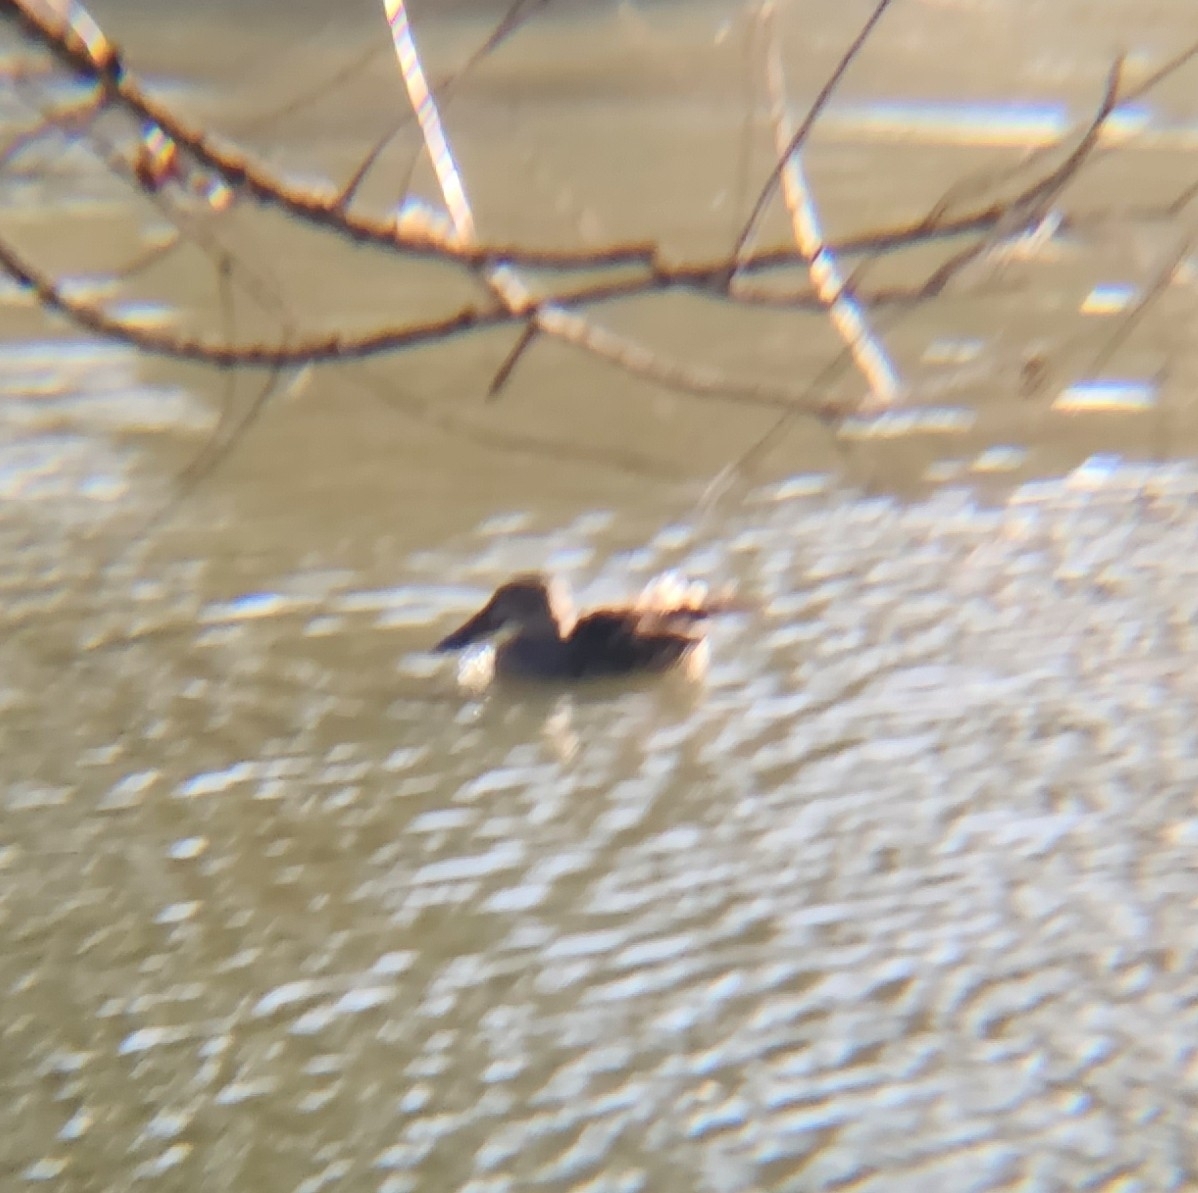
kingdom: Animalia
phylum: Chordata
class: Aves
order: Anseriformes
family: Anatidae
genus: Spatula
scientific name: Spatula clypeata
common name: Northern shoveler
